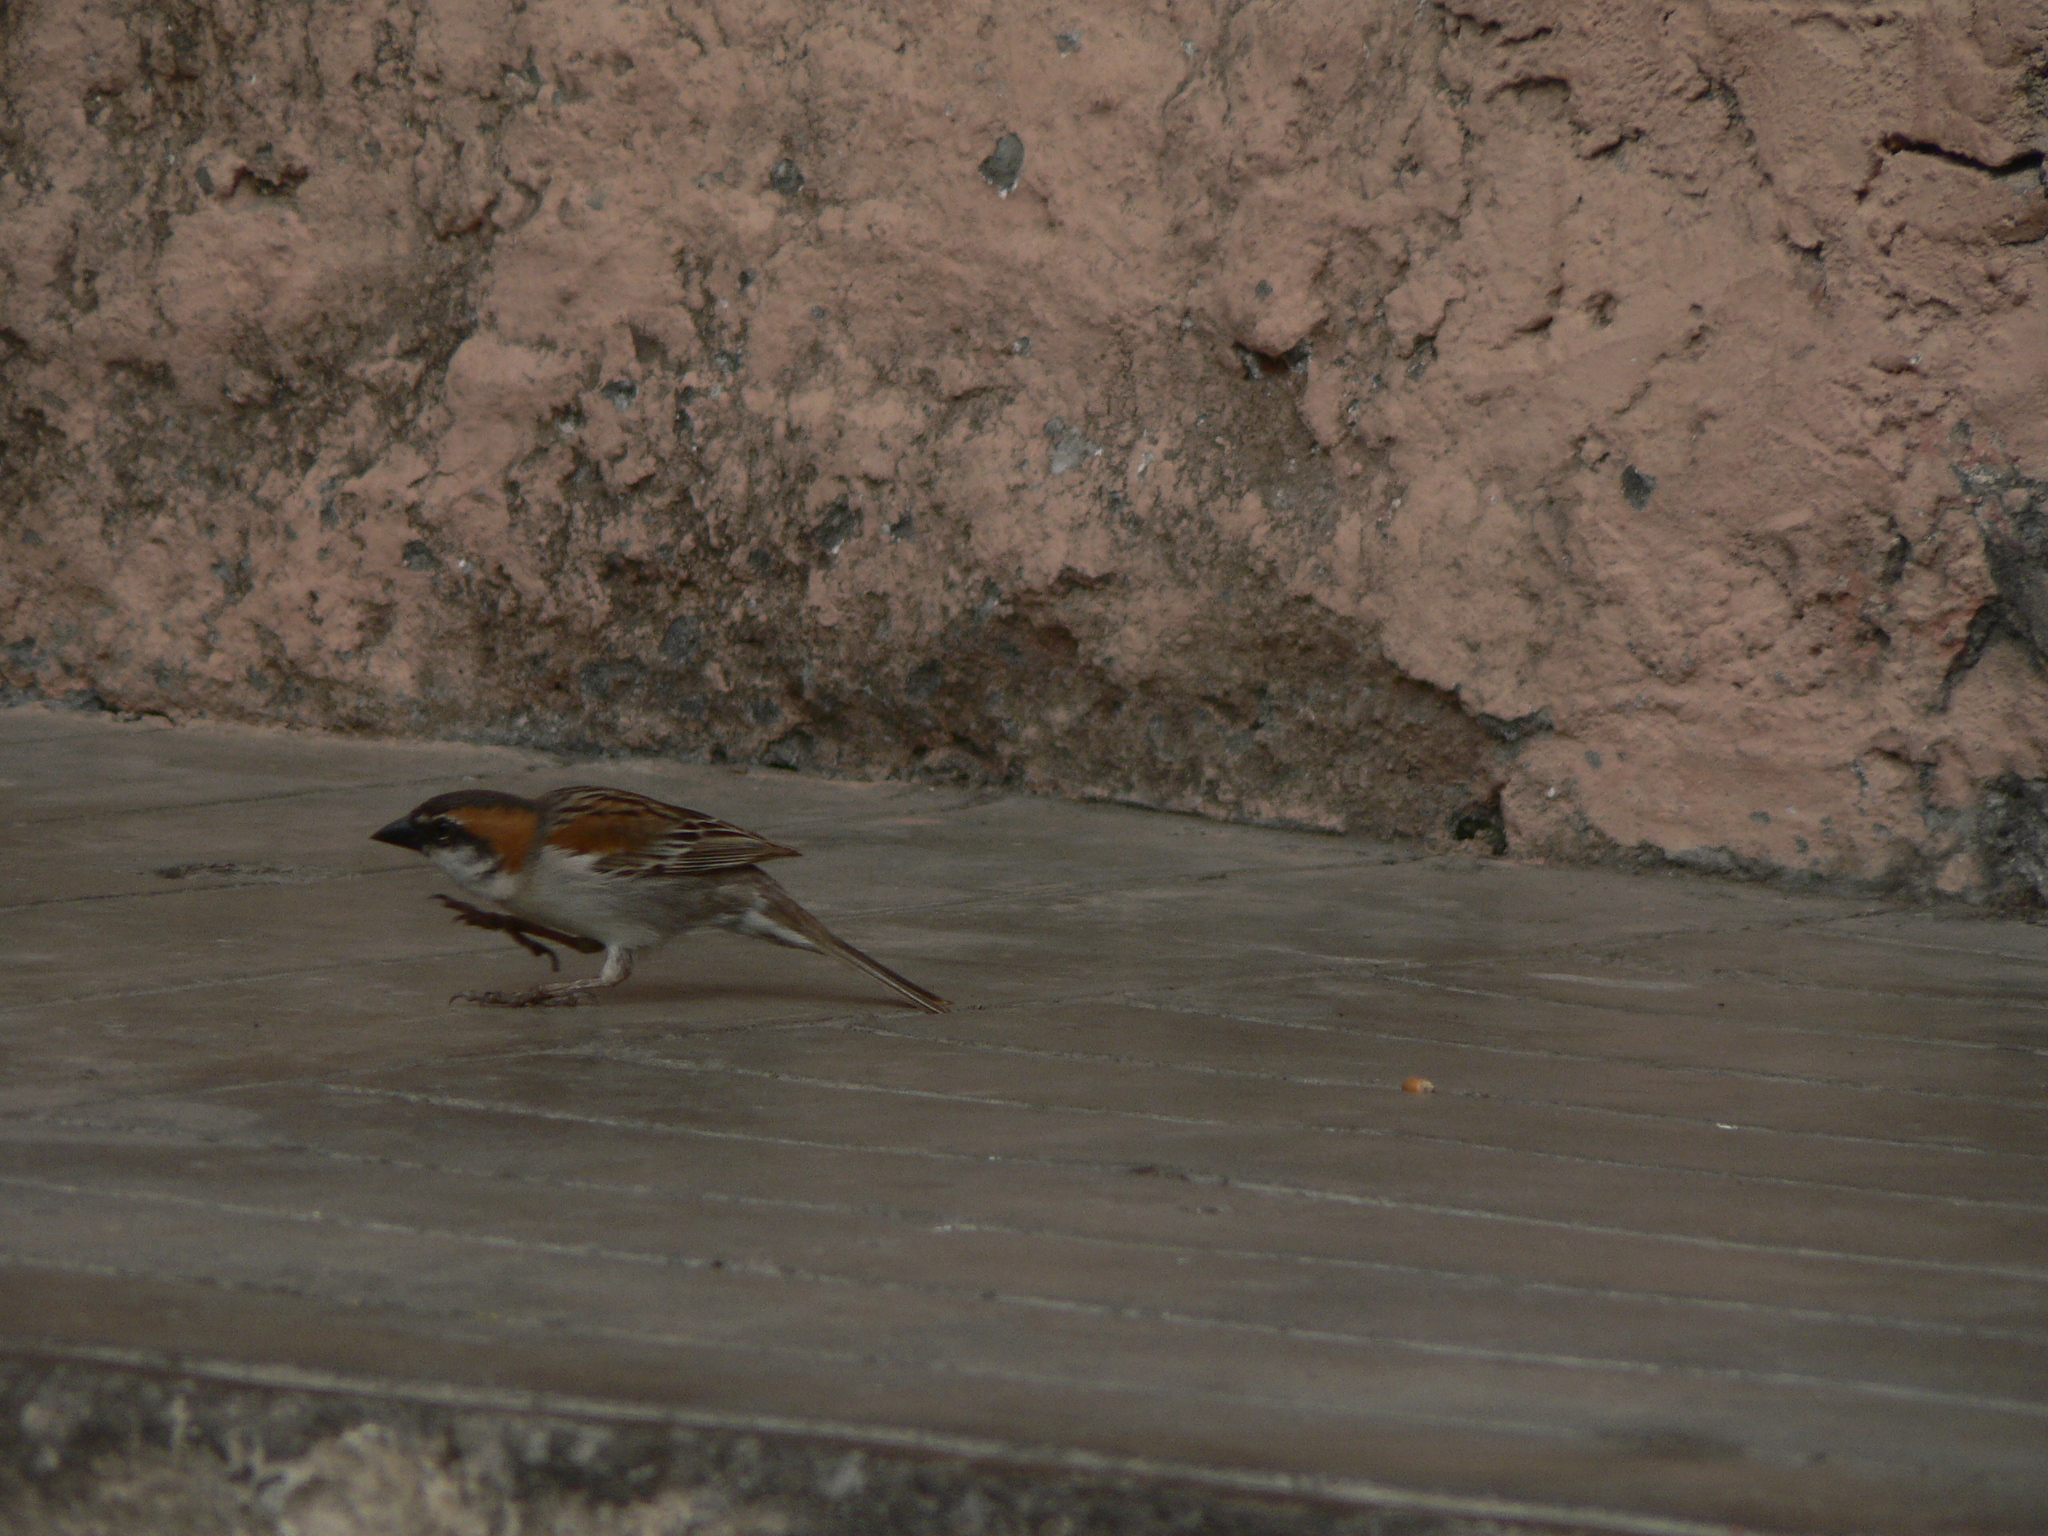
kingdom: Animalia
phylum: Chordata
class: Aves
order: Passeriformes
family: Passeridae
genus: Passer
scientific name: Passer iagoensis
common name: Iago sparrow
